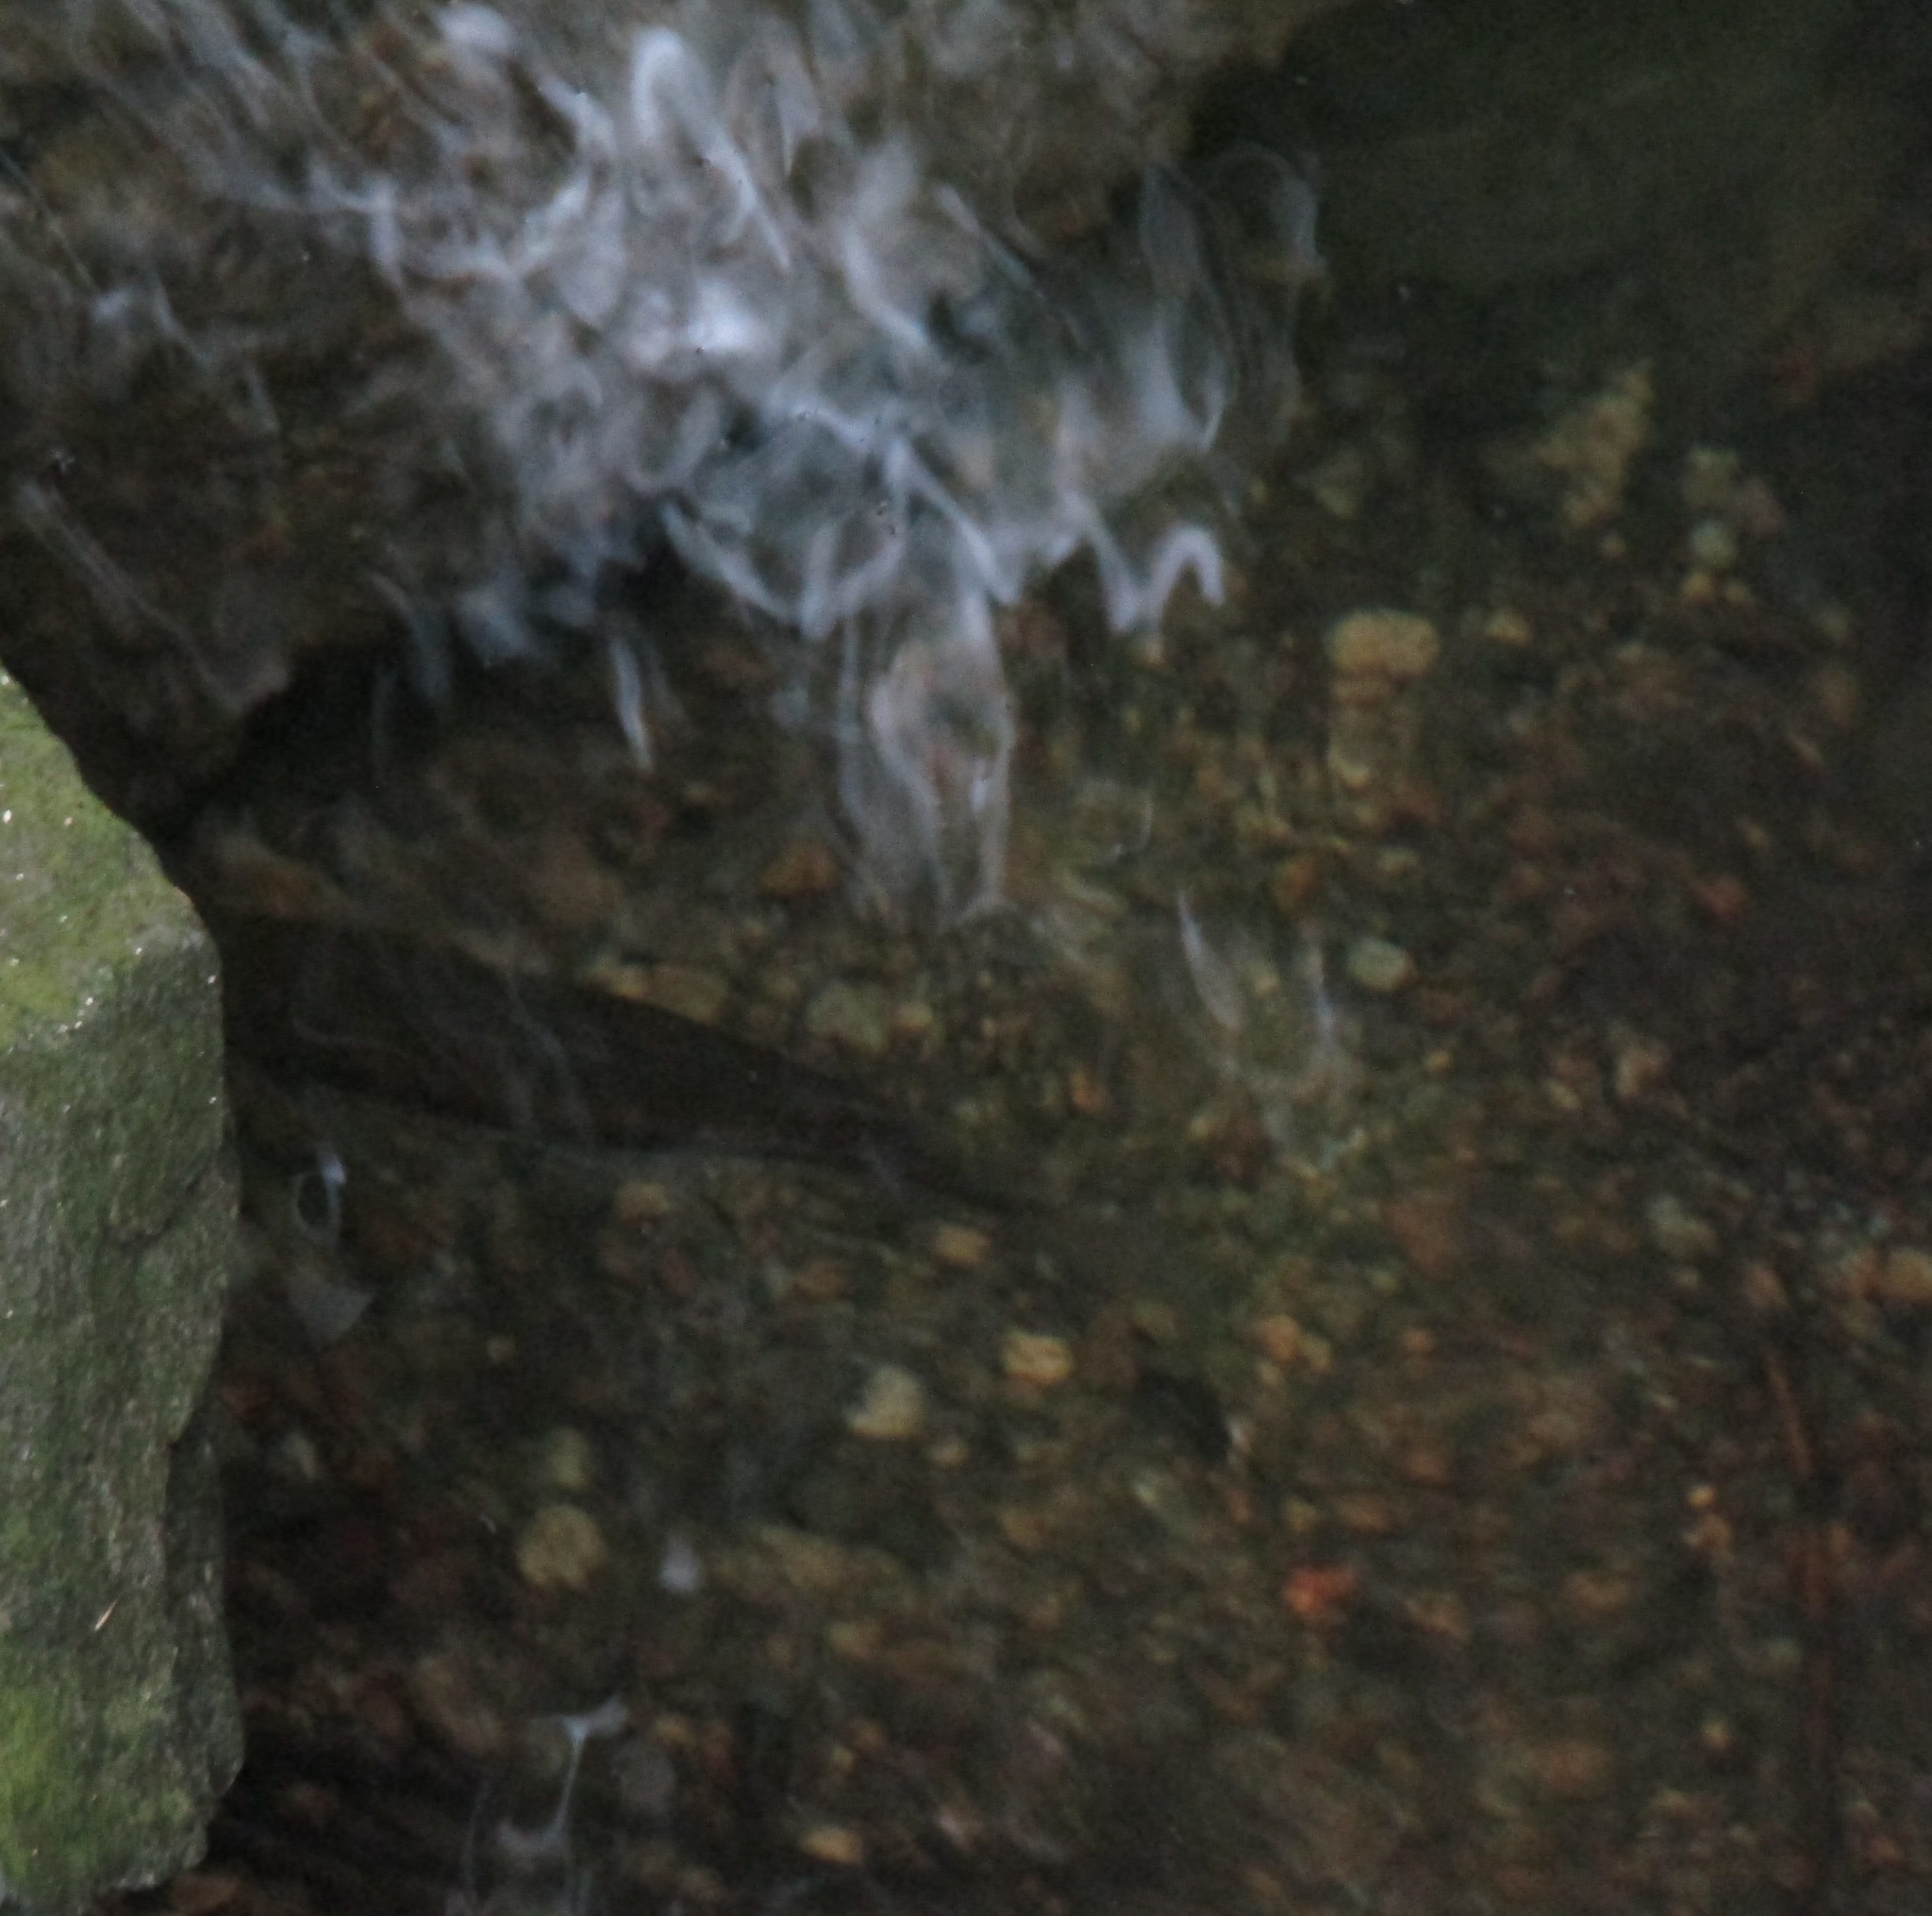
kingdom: Animalia
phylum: Chordata
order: Osmeriformes
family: Galaxiidae
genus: Galaxias
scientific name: Galaxias fasciatus
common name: Banded kokopu
